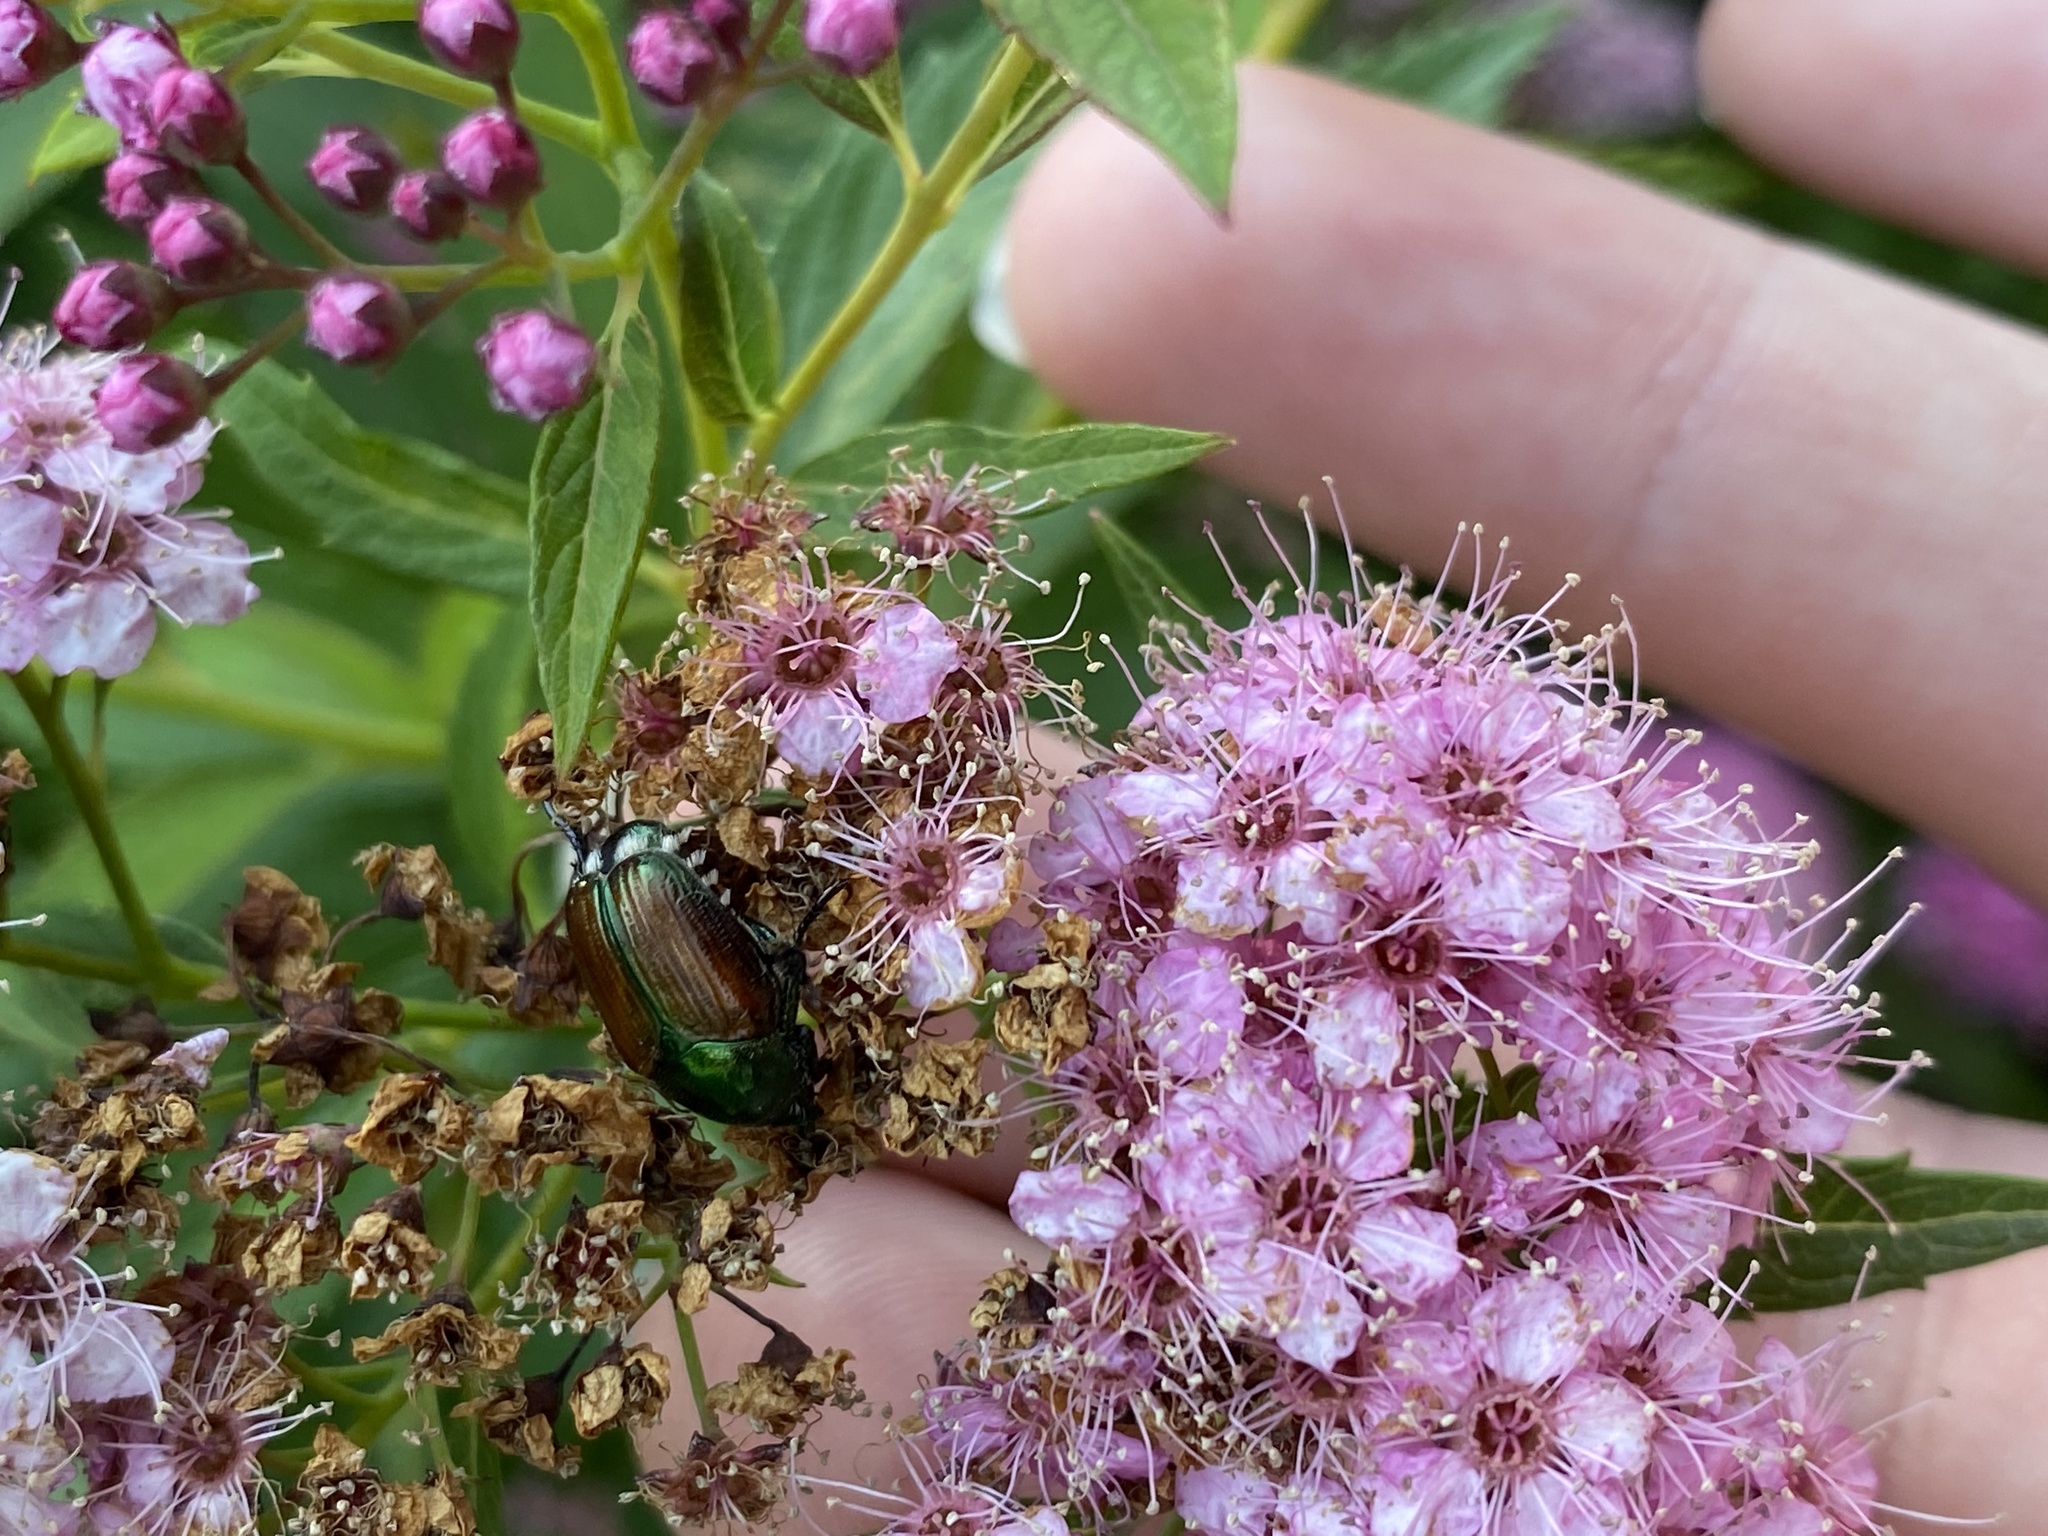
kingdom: Animalia
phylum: Arthropoda
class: Insecta
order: Coleoptera
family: Scarabaeidae
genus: Popillia
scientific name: Popillia japonica
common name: Japanese beetle
